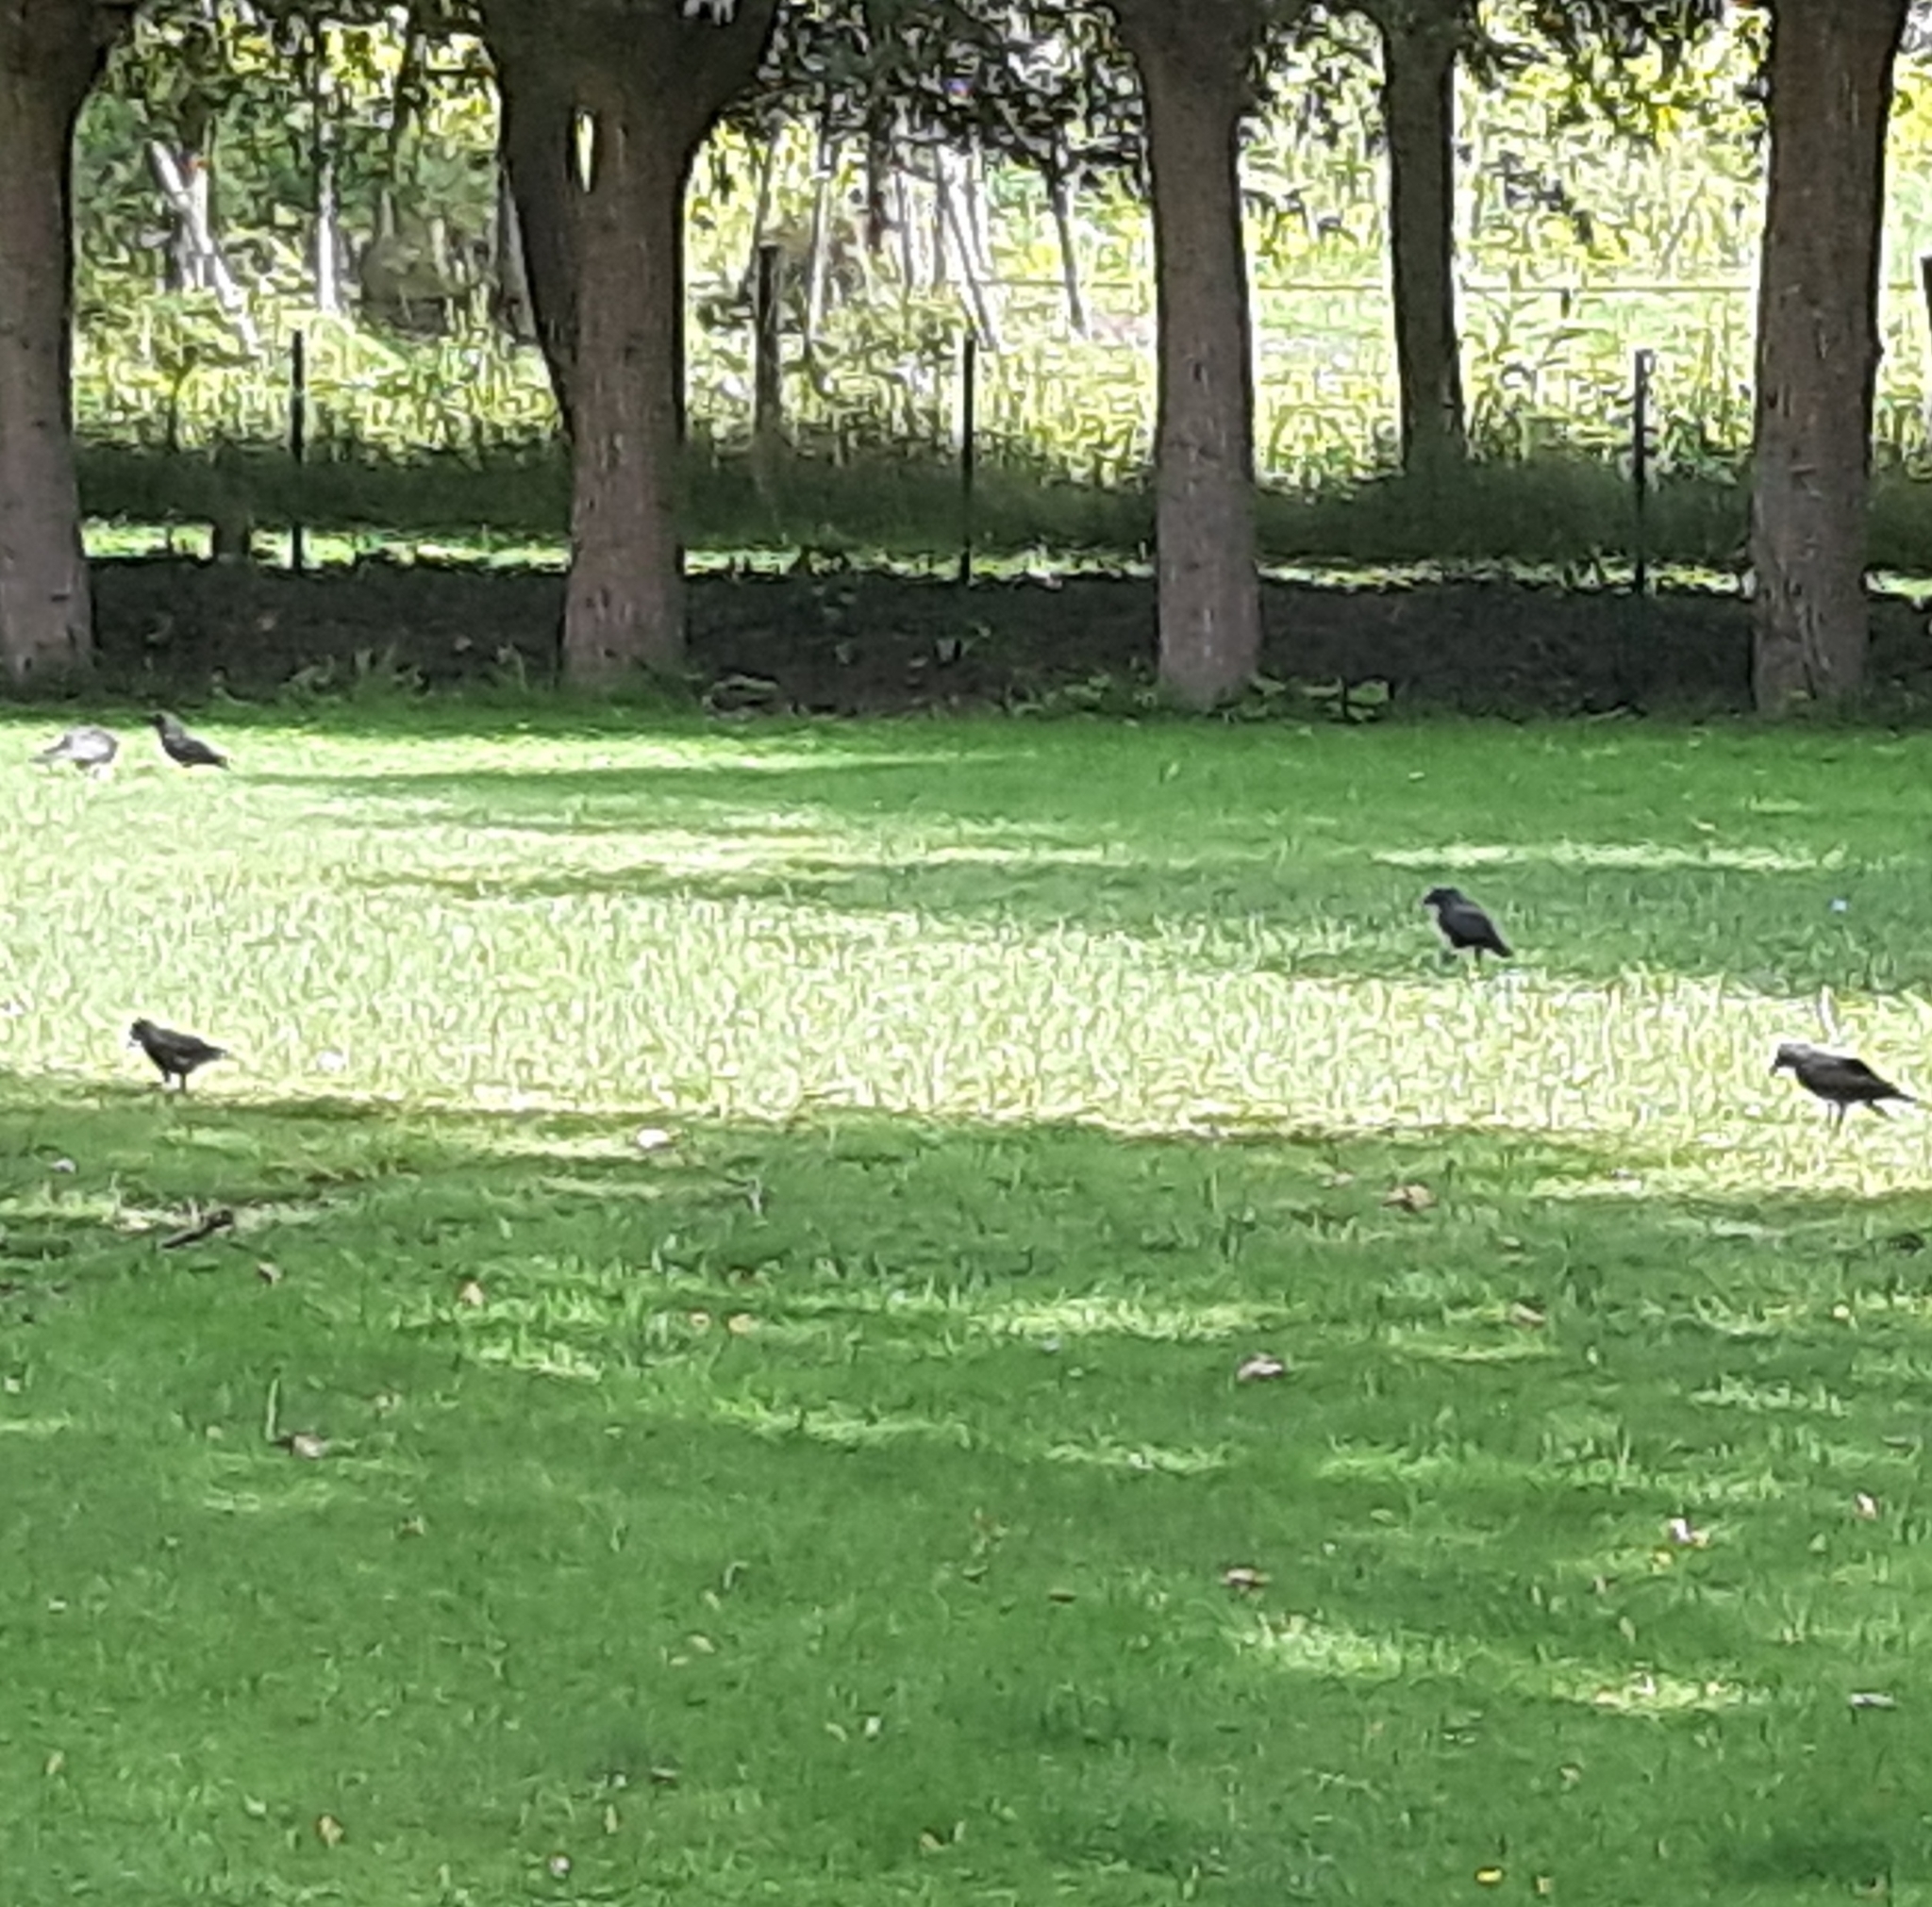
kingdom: Animalia
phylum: Chordata
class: Aves
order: Passeriformes
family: Corvidae
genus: Coloeus
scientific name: Coloeus monedula
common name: Western jackdaw
